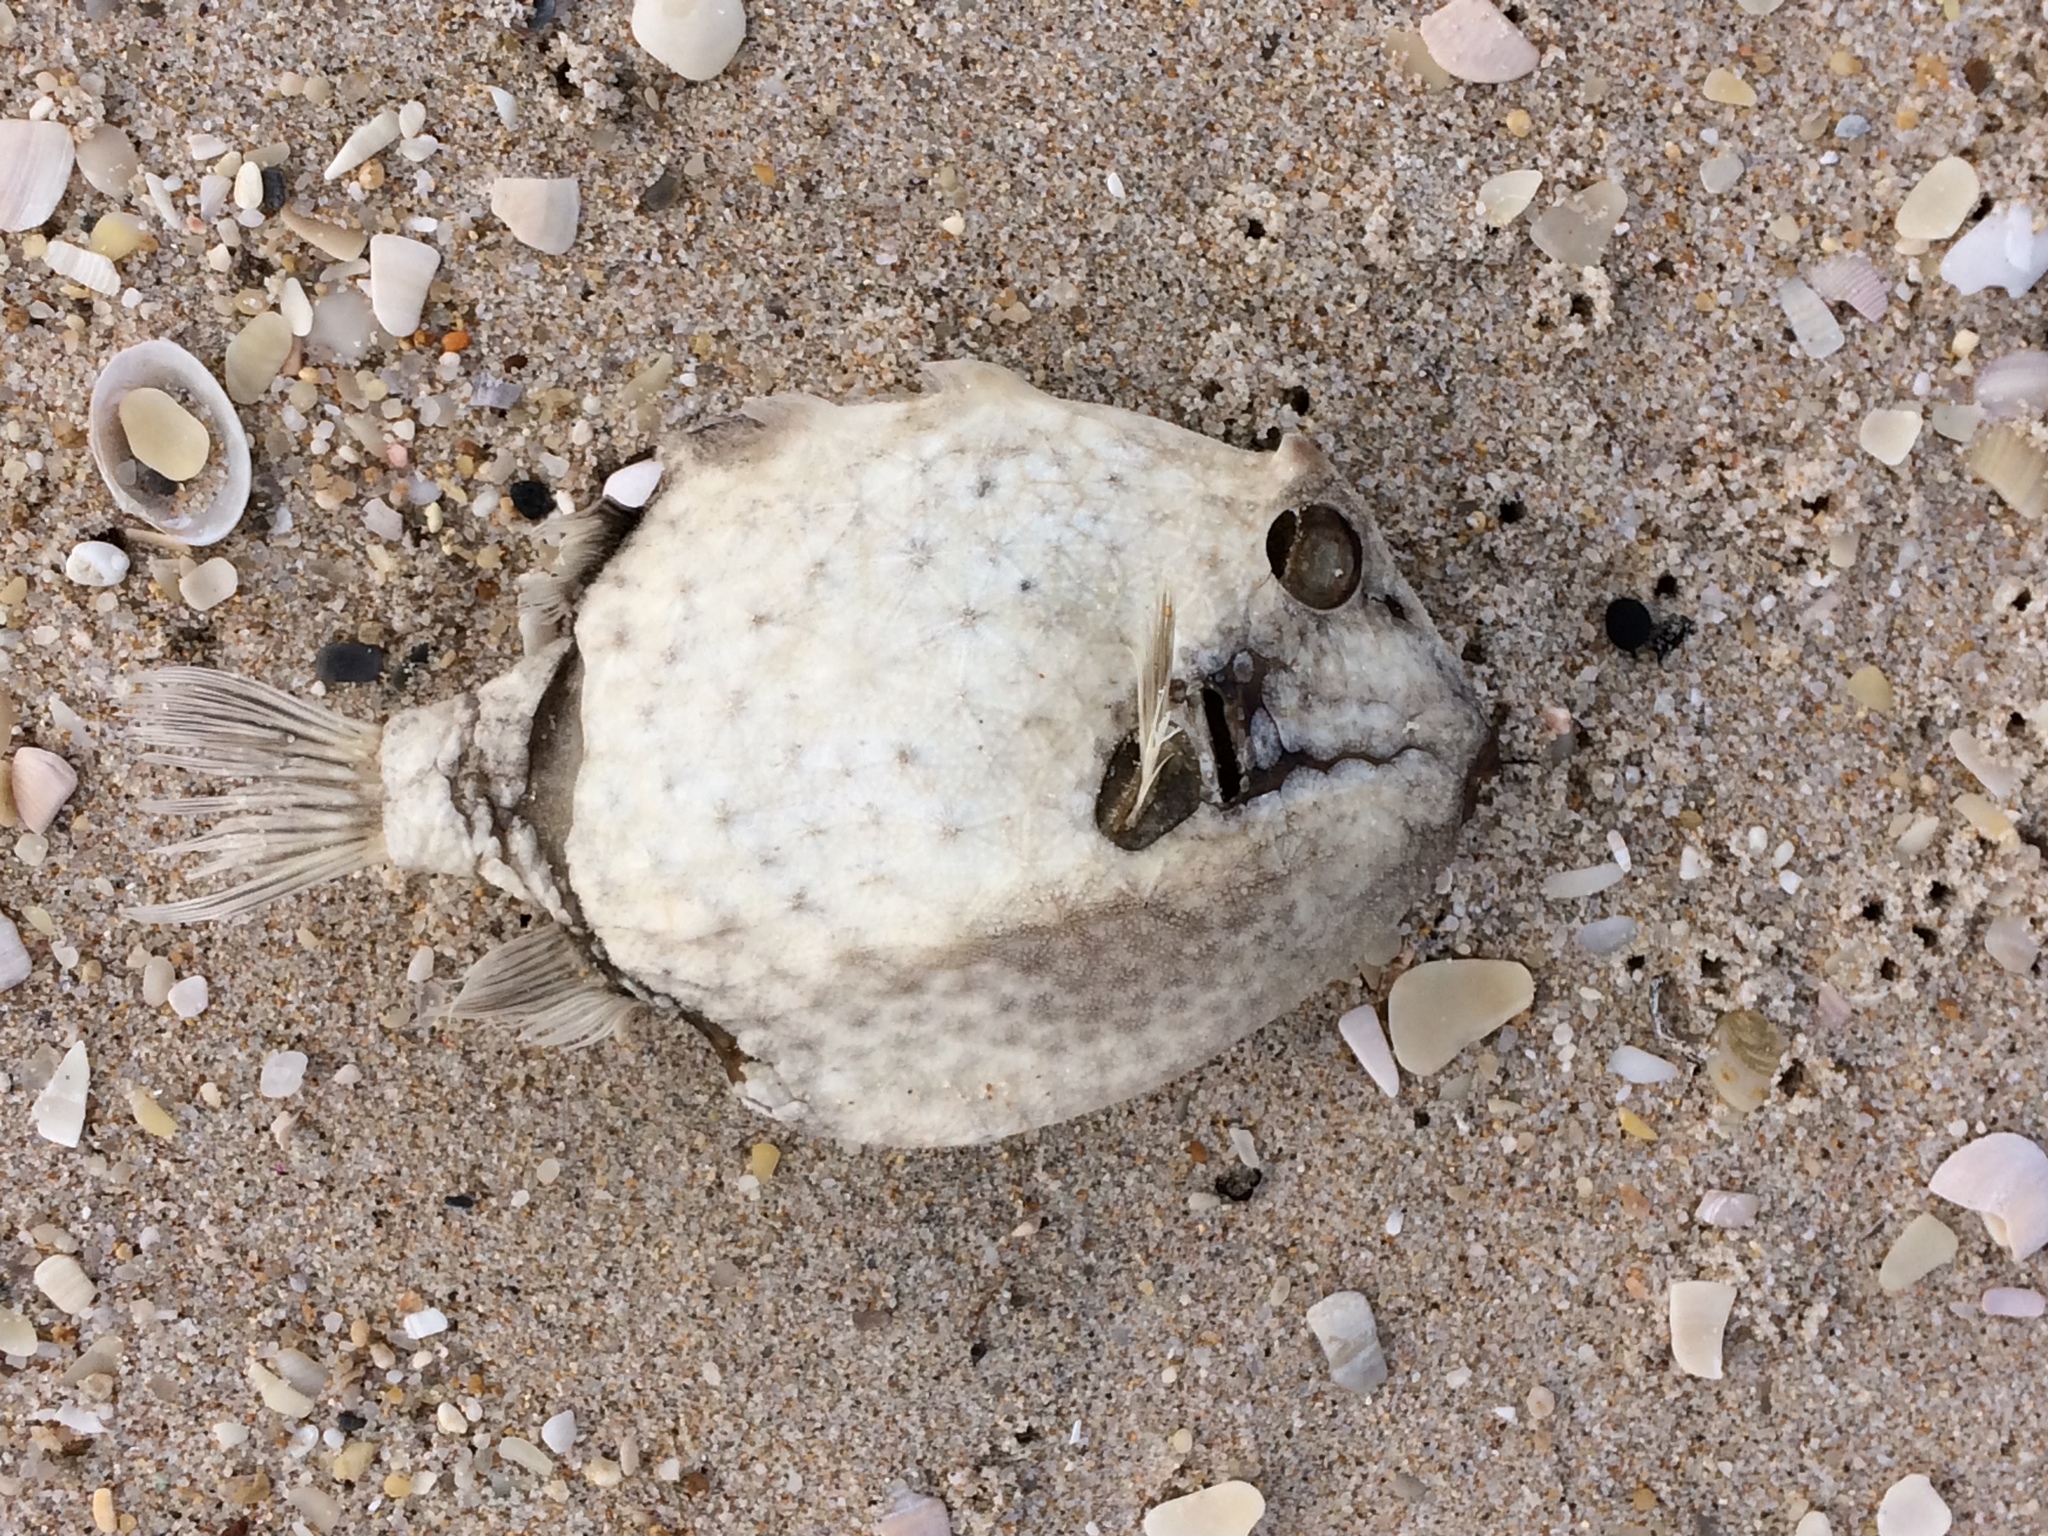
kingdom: Animalia
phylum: Chordata
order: Tetraodontiformes
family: Aracanidae
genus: Aracana
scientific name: Aracana aurita
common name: Shaw’s cowfish
